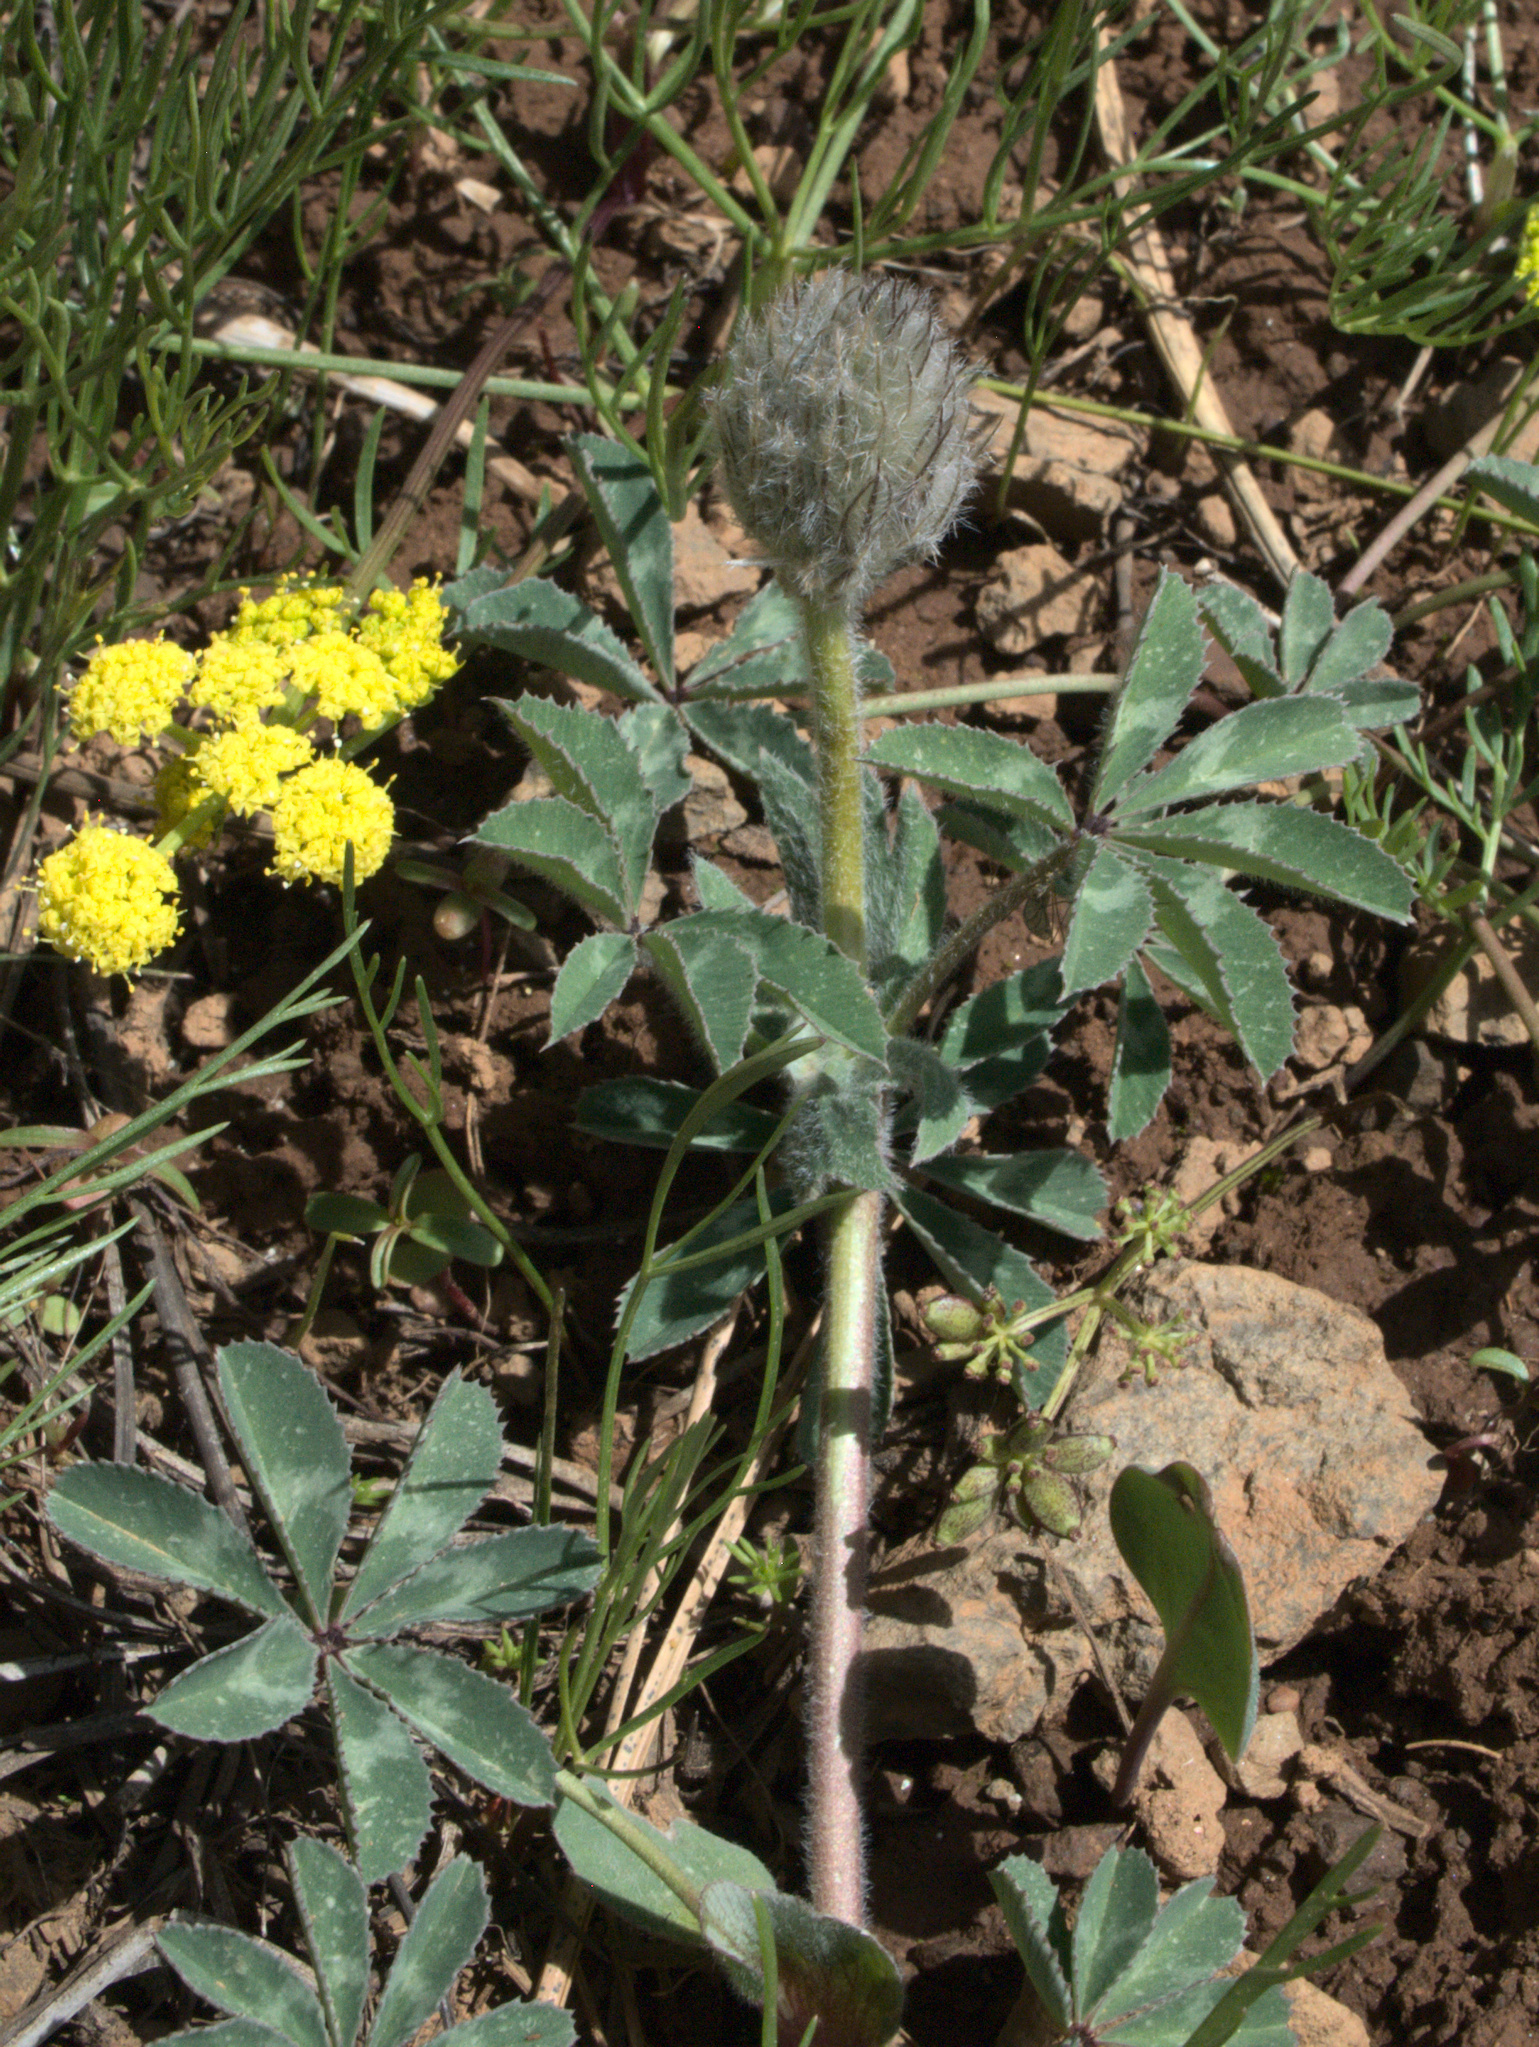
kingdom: Plantae
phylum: Tracheophyta
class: Magnoliopsida
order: Fabales
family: Fabaceae
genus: Trifolium
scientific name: Trifolium macrocephalum
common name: Large-head clover
